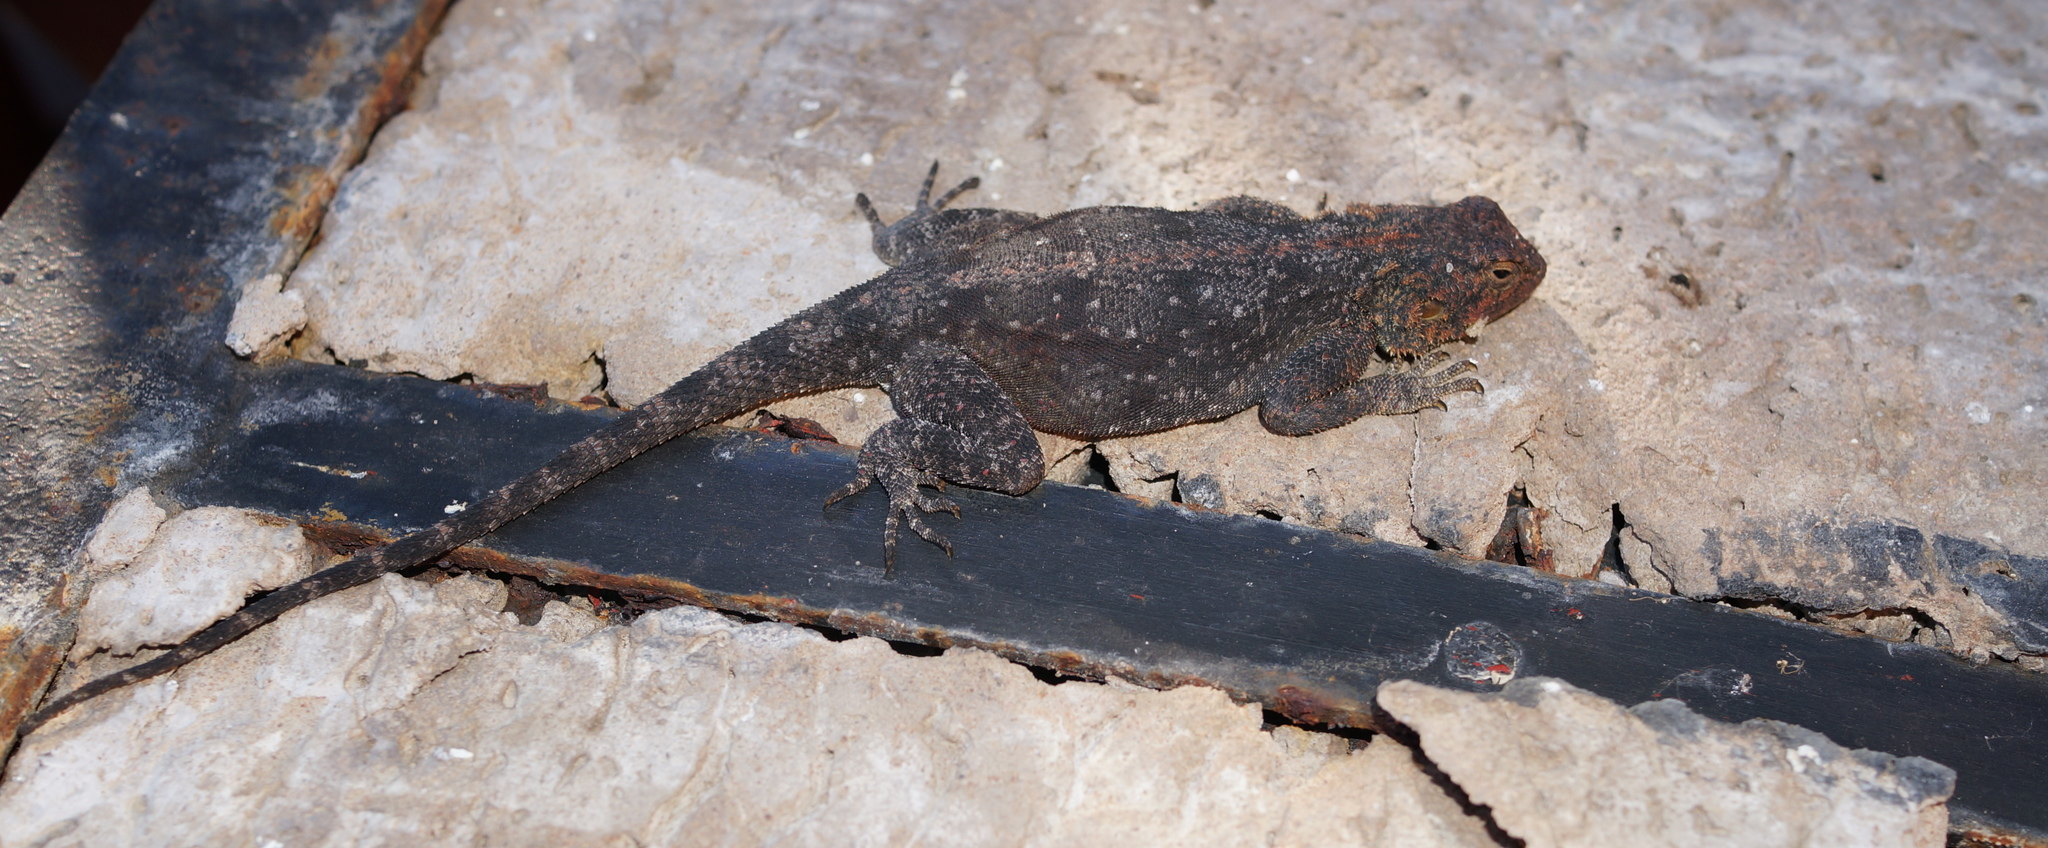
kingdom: Animalia
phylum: Chordata
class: Squamata
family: Agamidae
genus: Agama
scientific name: Agama atra
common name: Southern african rock agama
